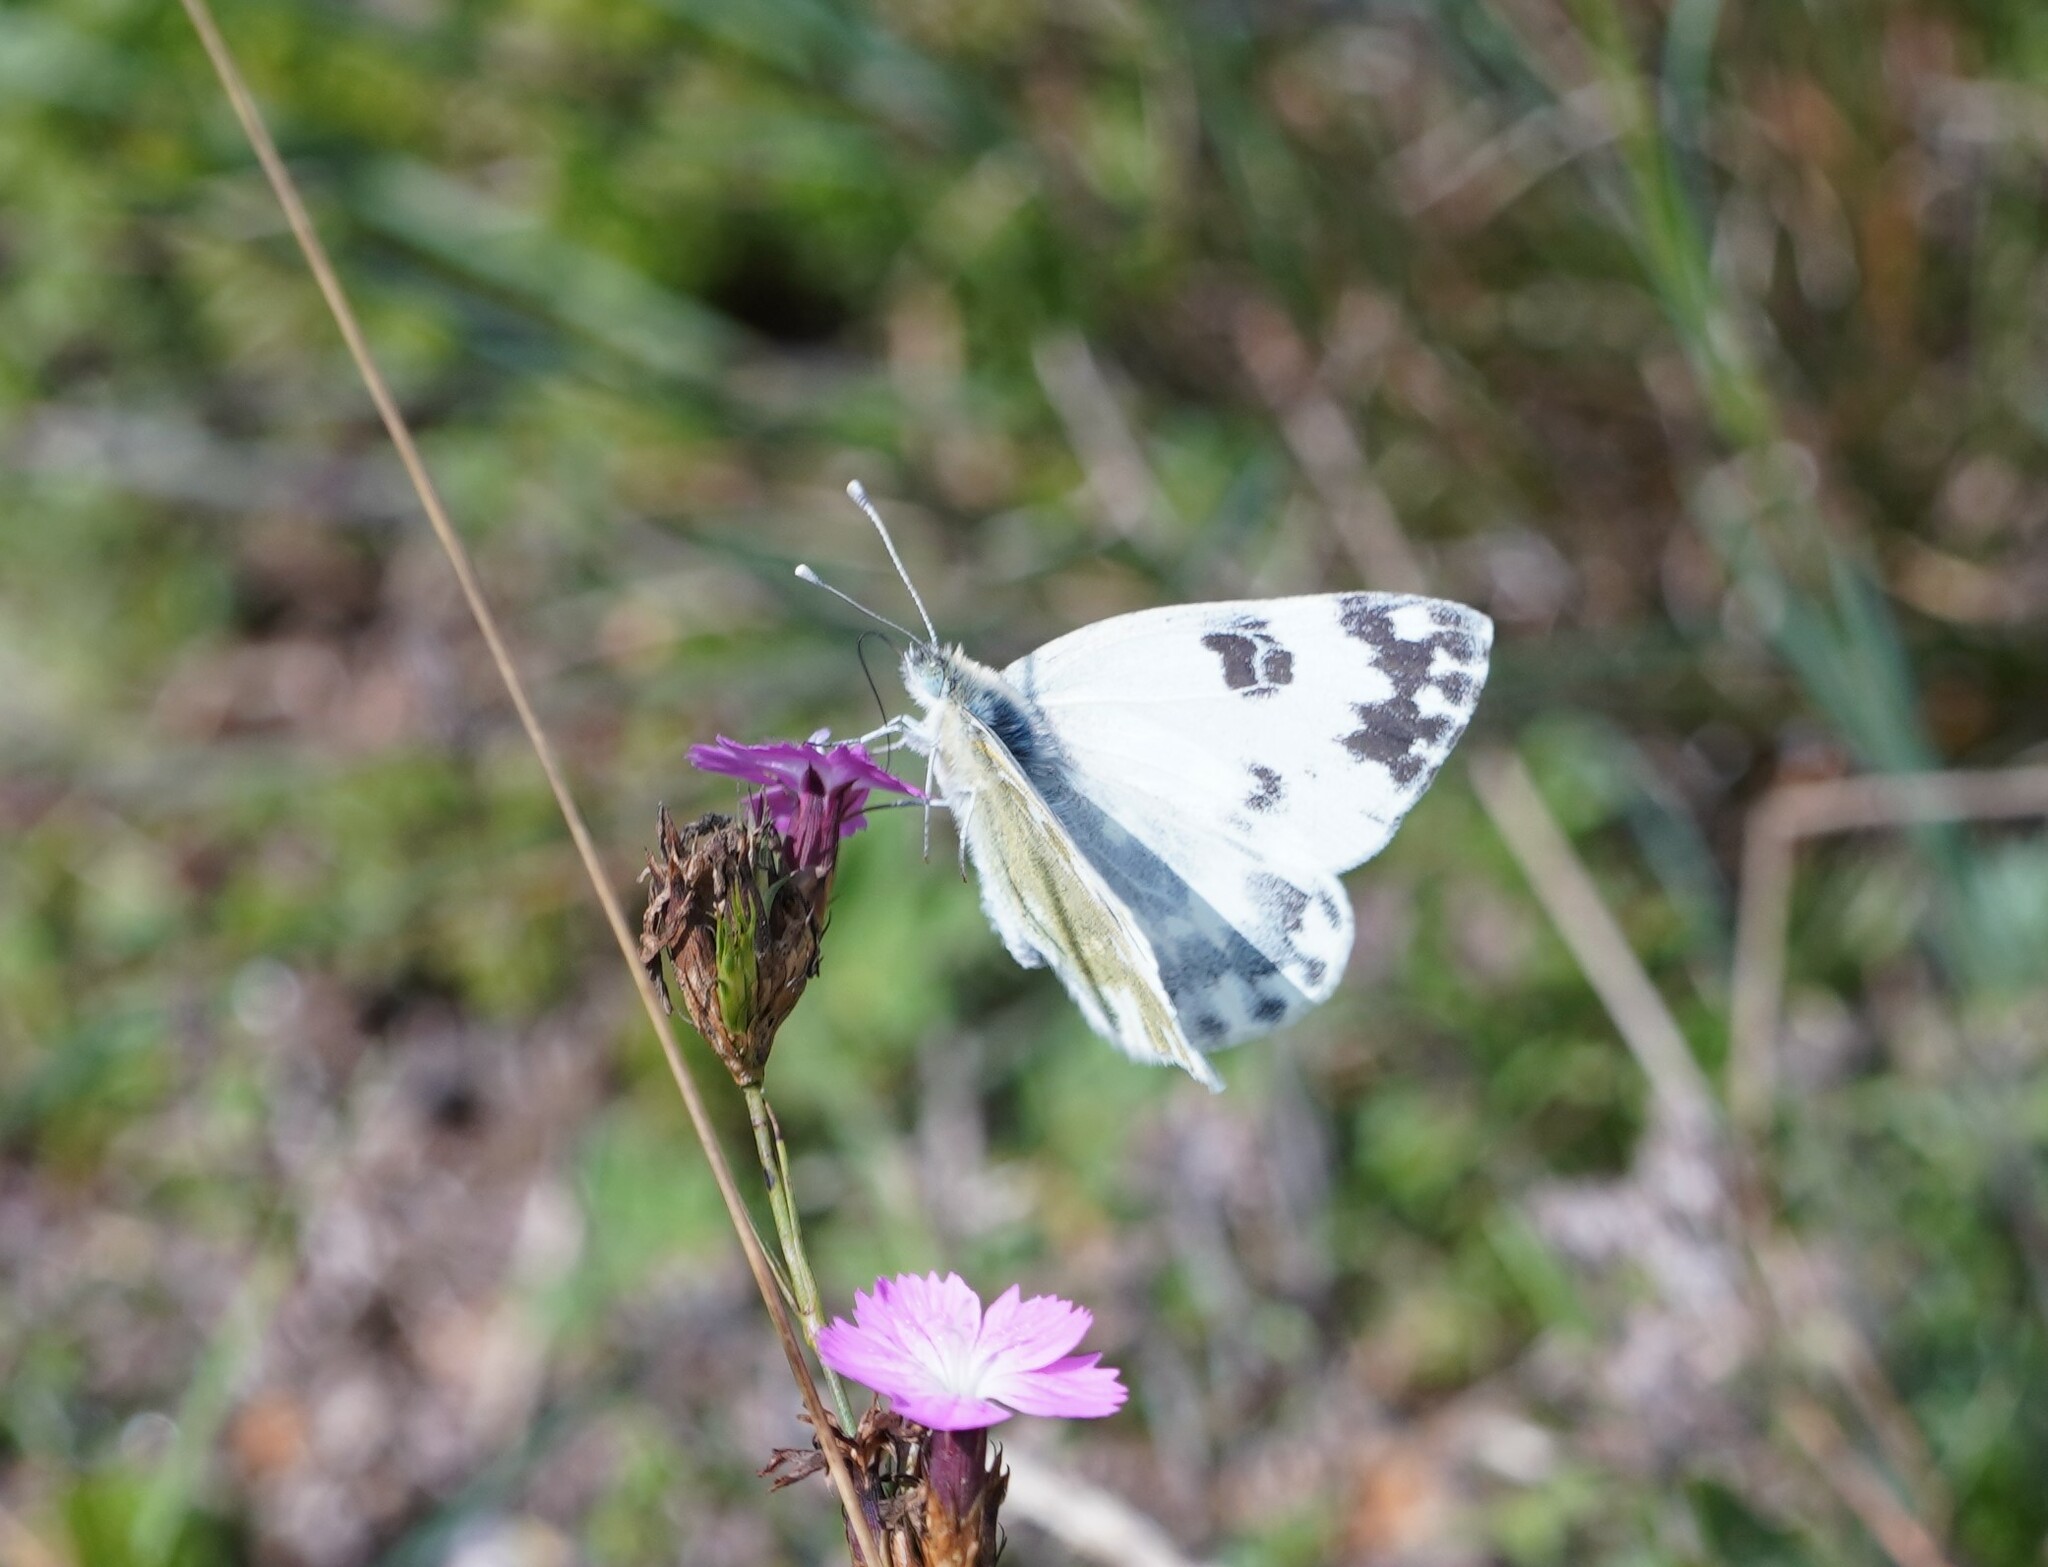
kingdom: Animalia
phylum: Arthropoda
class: Insecta
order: Lepidoptera
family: Pieridae
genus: Pontia
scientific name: Pontia edusa
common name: Eastern bath white
